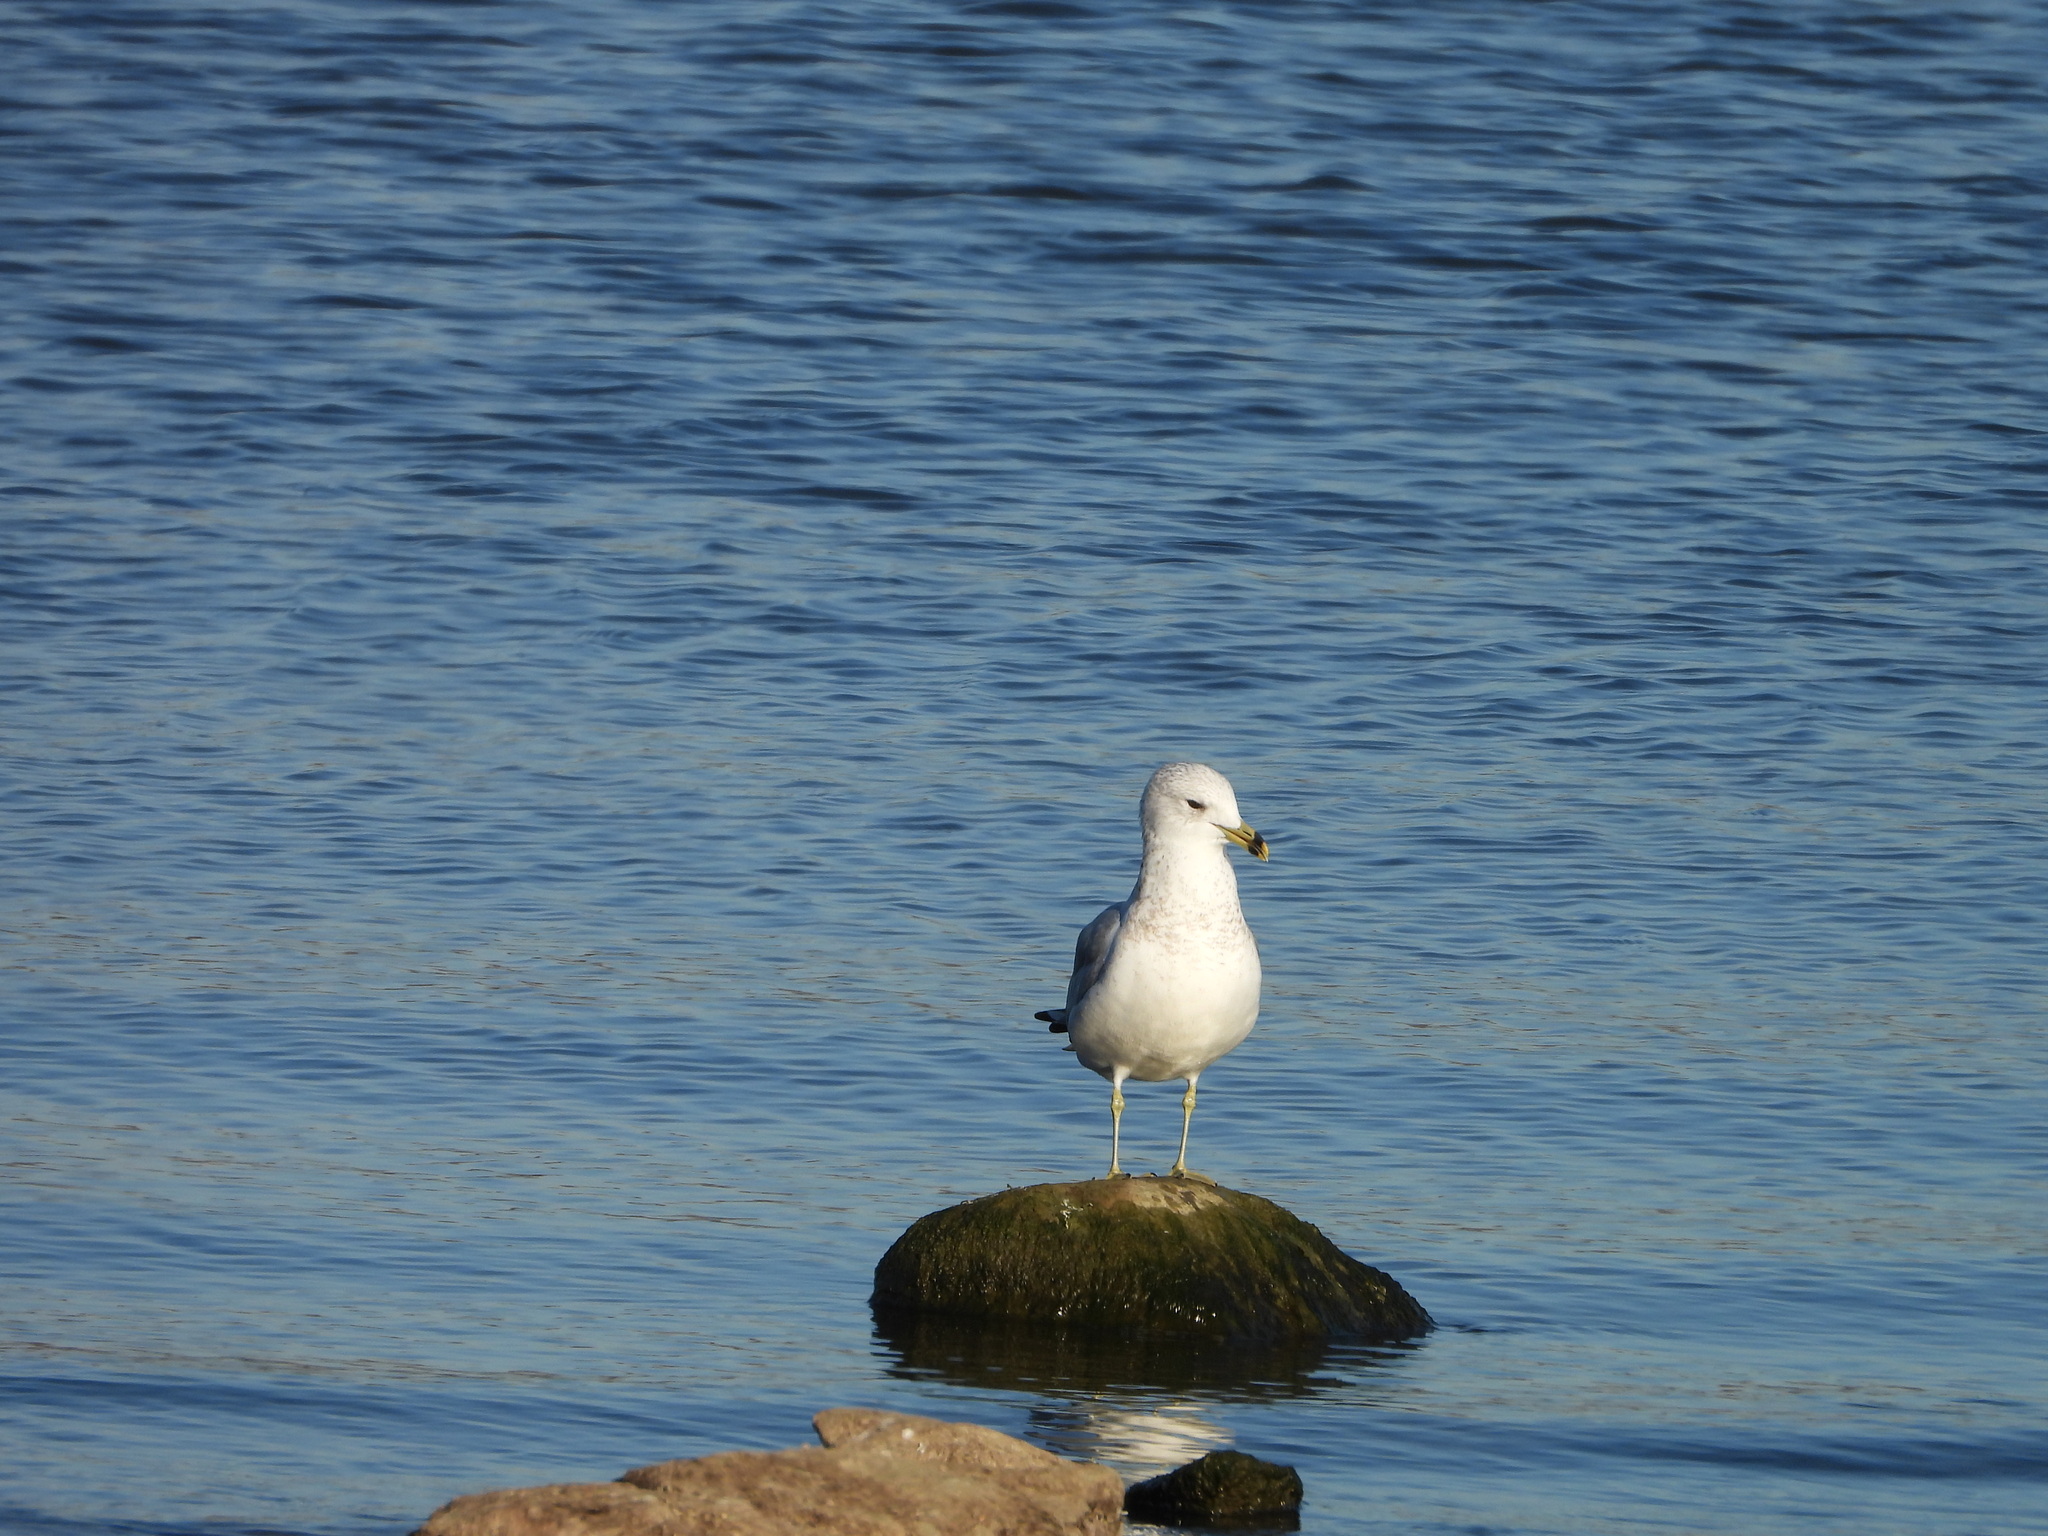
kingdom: Animalia
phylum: Chordata
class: Aves
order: Charadriiformes
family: Laridae
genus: Larus
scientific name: Larus delawarensis
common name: Ring-billed gull
